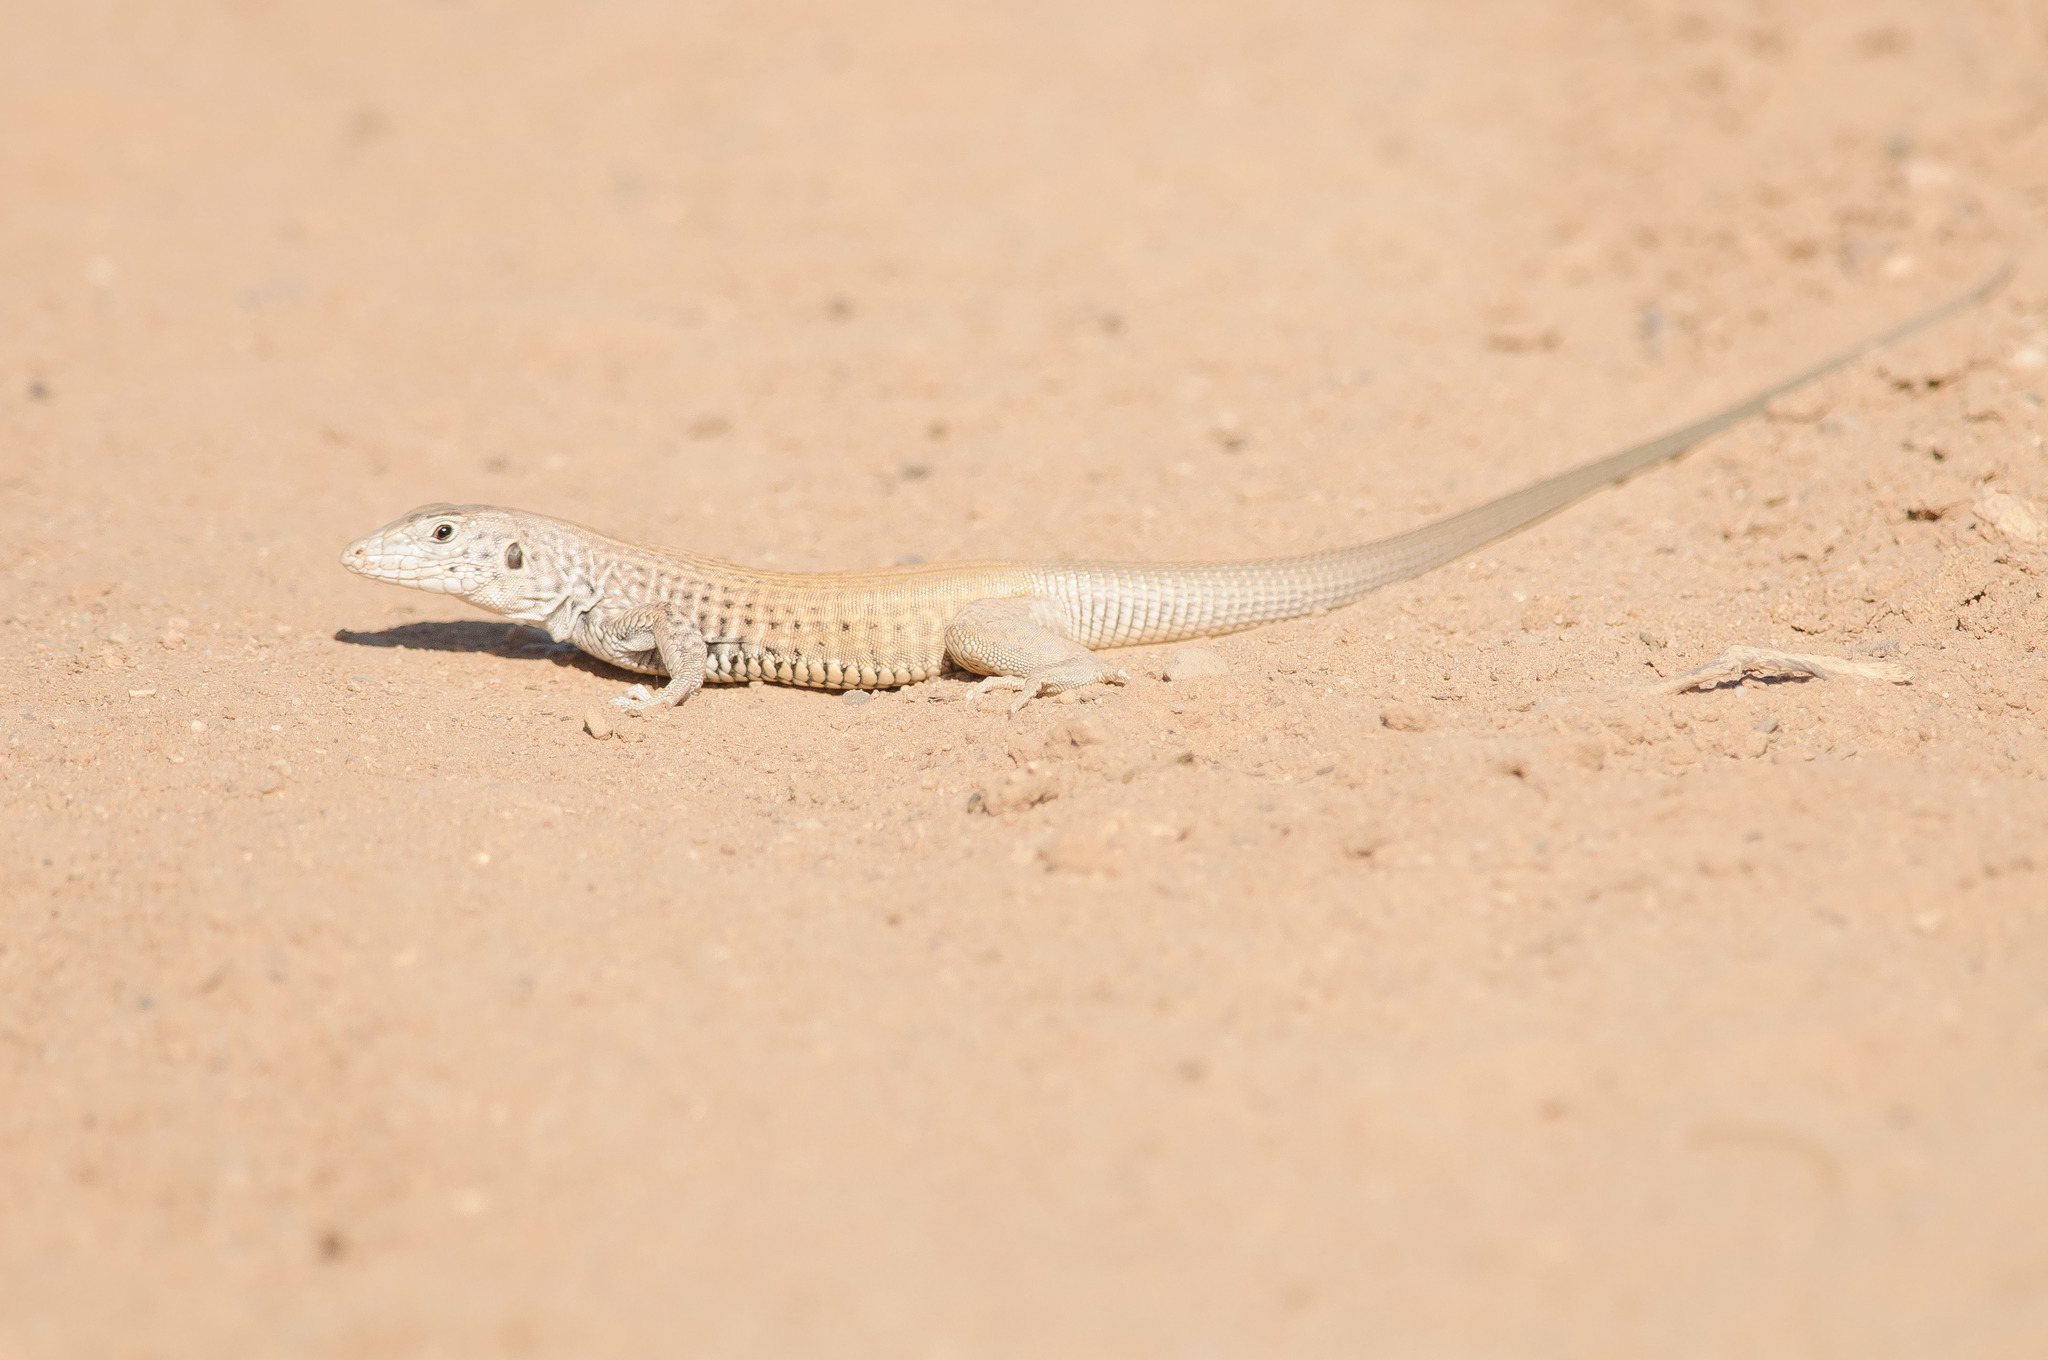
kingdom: Animalia
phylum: Chordata
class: Squamata
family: Teiidae
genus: Aspidoscelis
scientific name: Aspidoscelis tigris
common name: Tiger whiptail
